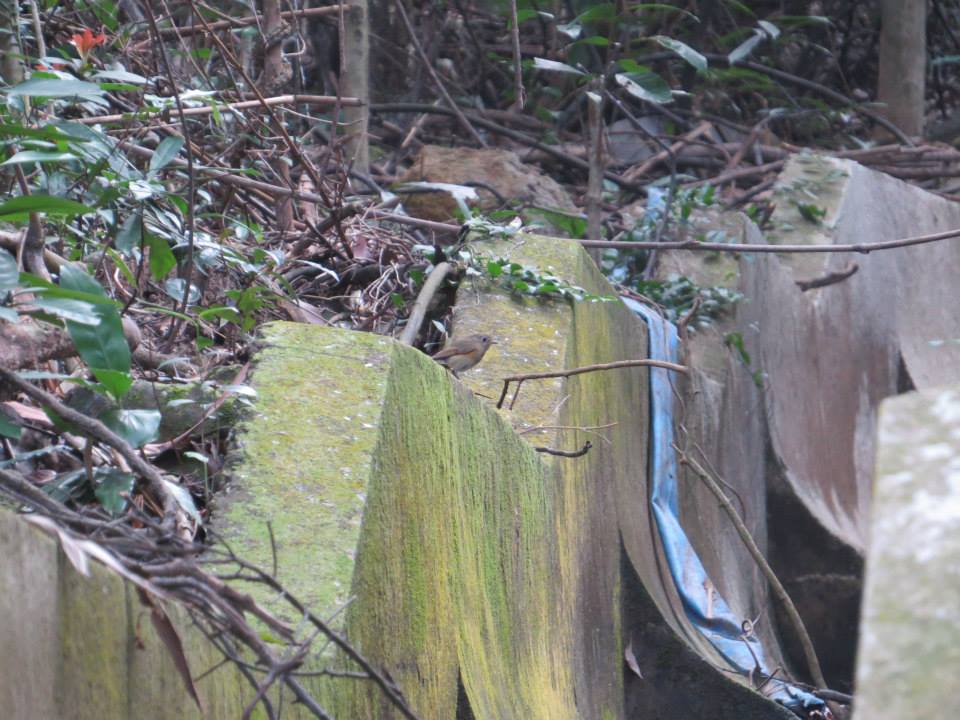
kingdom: Animalia
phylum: Chordata
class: Aves
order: Passeriformes
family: Muscicapidae
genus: Tarsiger
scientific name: Tarsiger cyanurus
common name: Red-flanked bluetail
